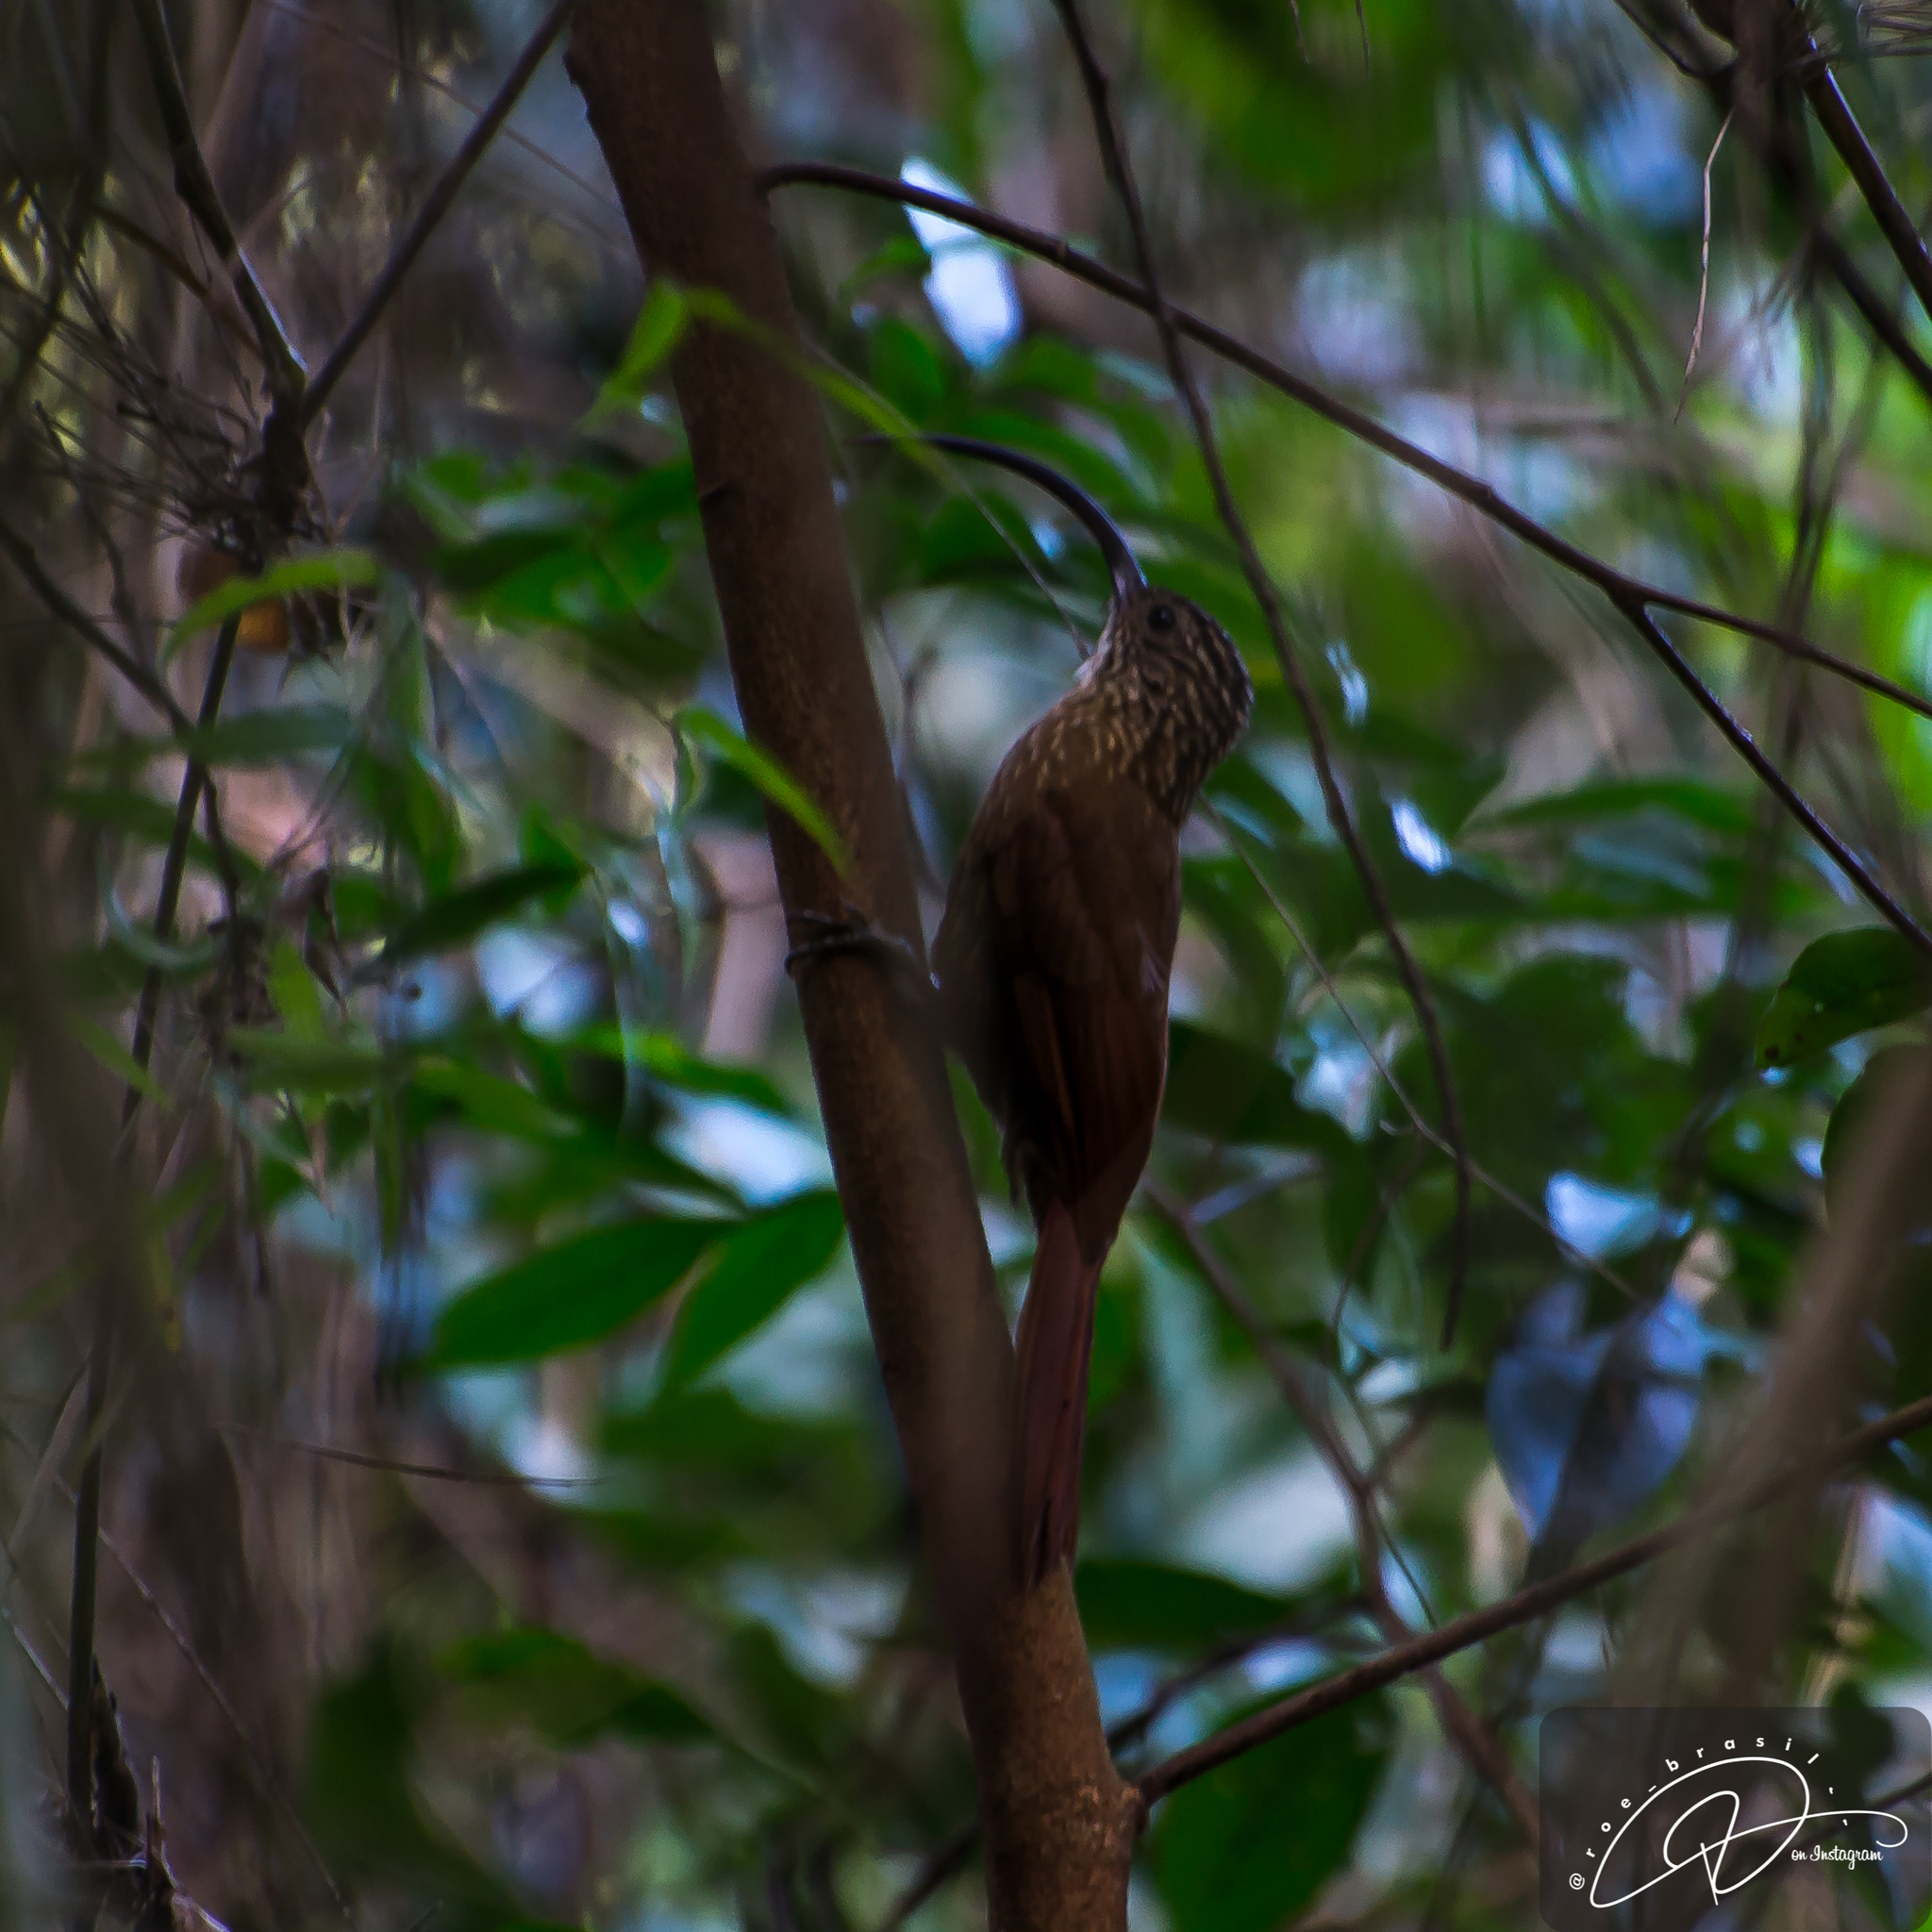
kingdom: Animalia
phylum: Chordata
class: Aves
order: Passeriformes
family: Furnariidae
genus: Campylorhamphus
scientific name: Campylorhamphus falcularius
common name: Black-billed scythebill
